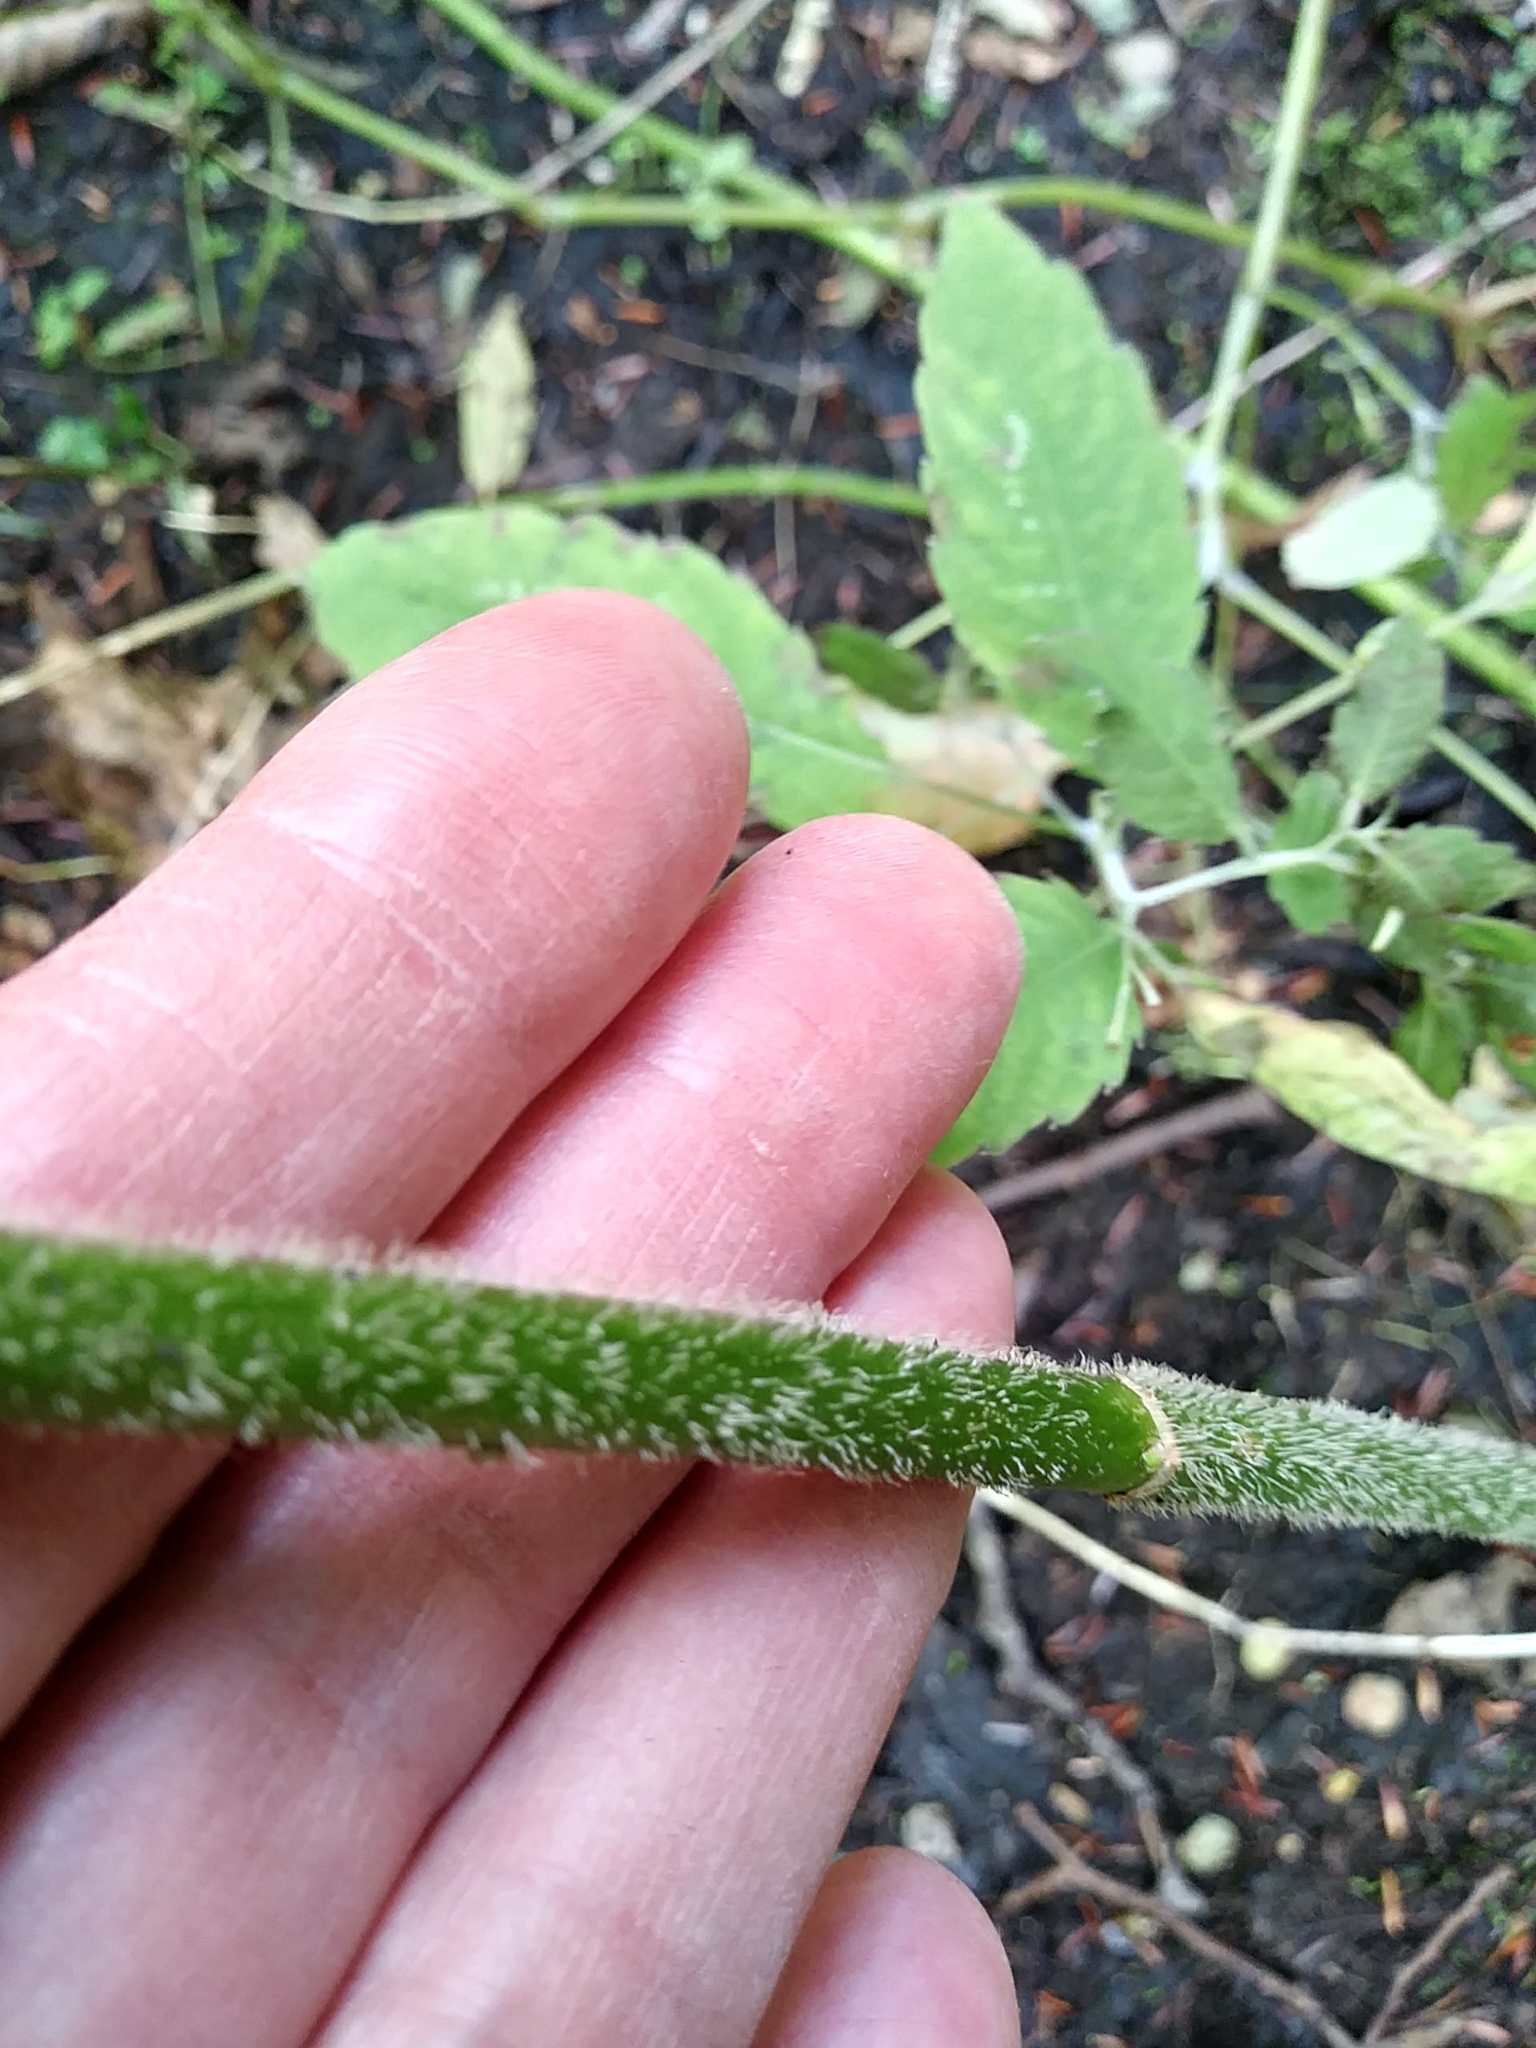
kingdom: Plantae
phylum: Tracheophyta
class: Magnoliopsida
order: Asterales
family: Asteraceae
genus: Symphyotrichum
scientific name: Symphyotrichum puniceum
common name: Bog aster
